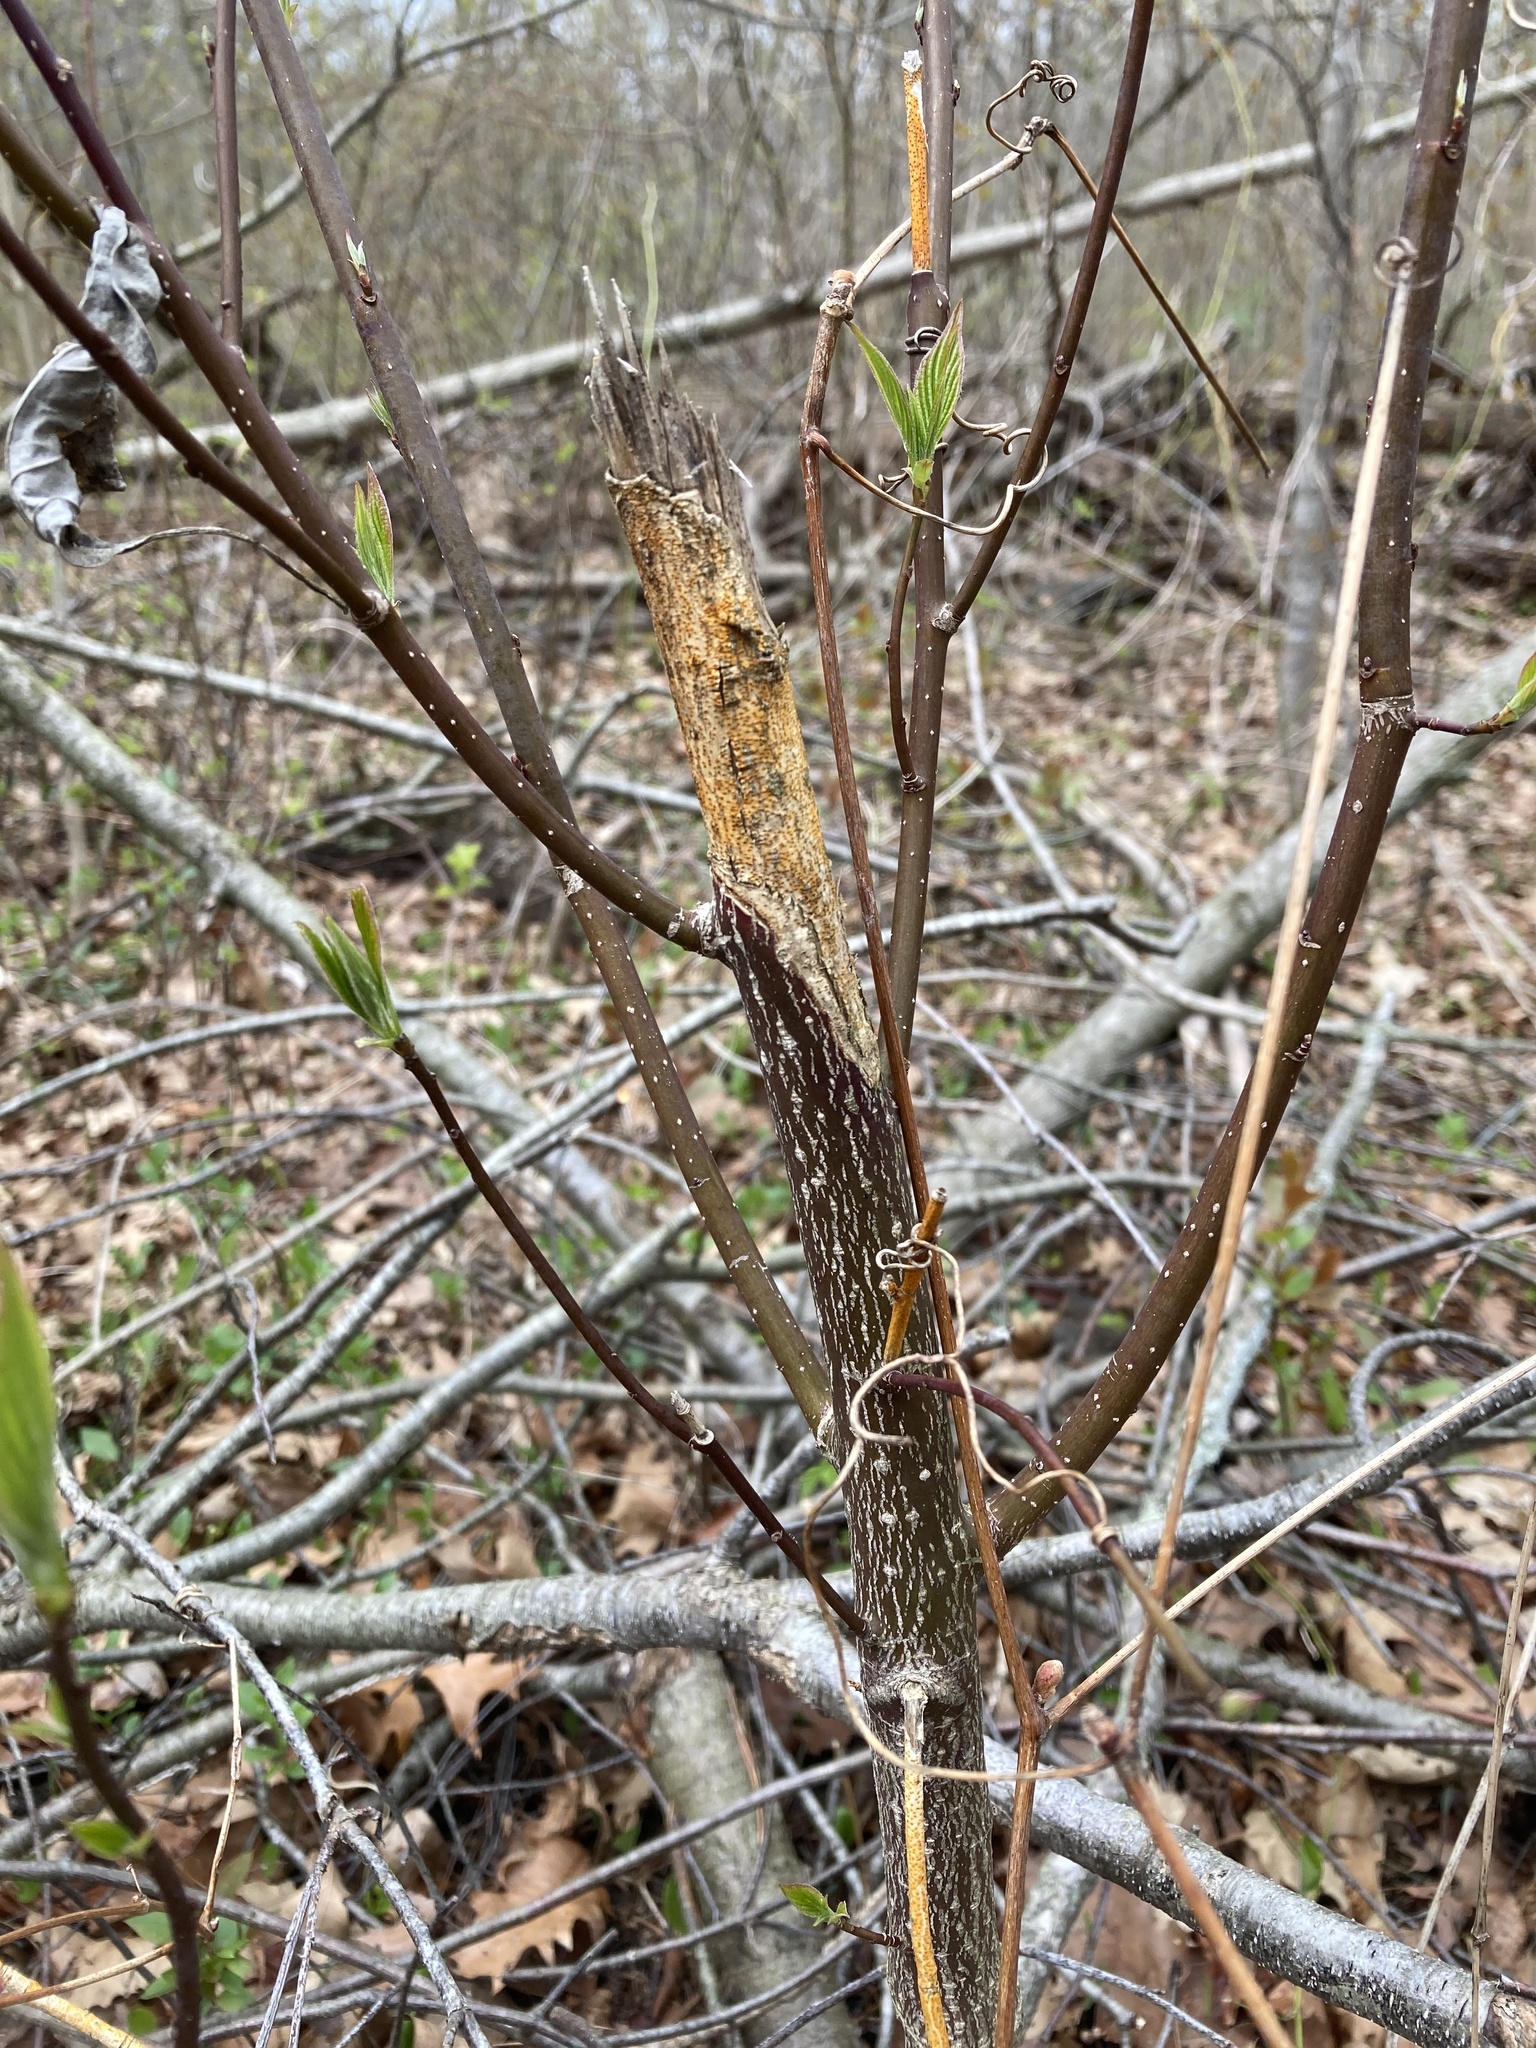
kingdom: Plantae
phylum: Tracheophyta
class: Magnoliopsida
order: Cornales
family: Cornaceae
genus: Cornus
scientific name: Cornus alternifolia
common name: Pagoda dogwood
